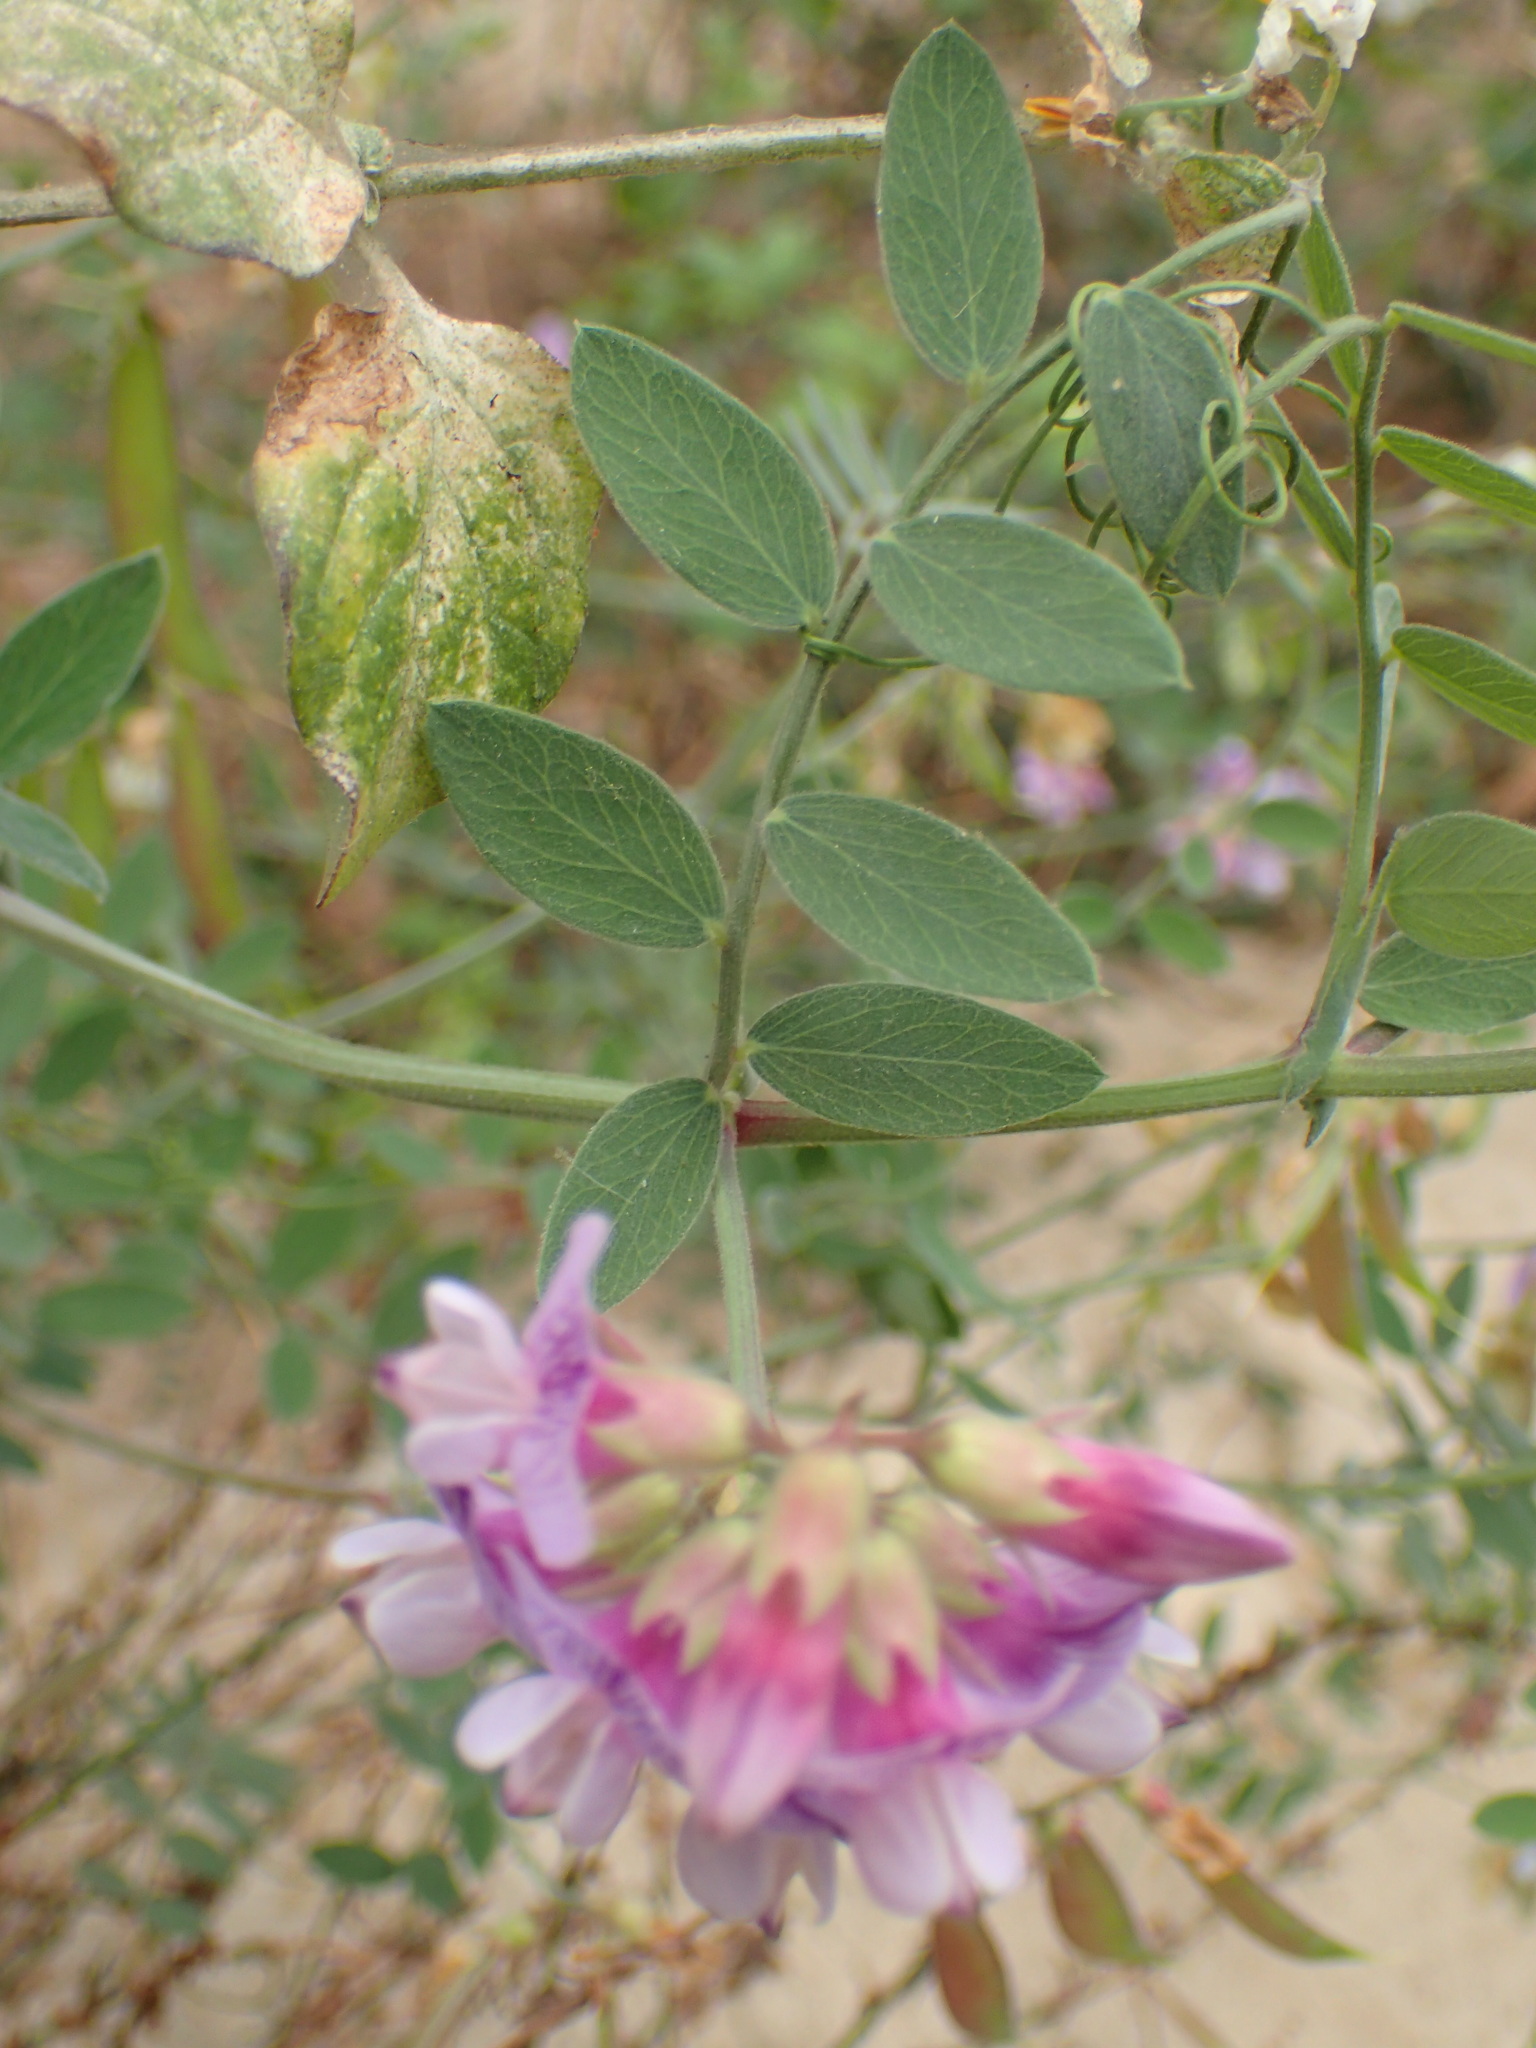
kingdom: Plantae
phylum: Tracheophyta
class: Magnoliopsida
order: Fabales
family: Fabaceae
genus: Lathyrus
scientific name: Lathyrus vestitus
